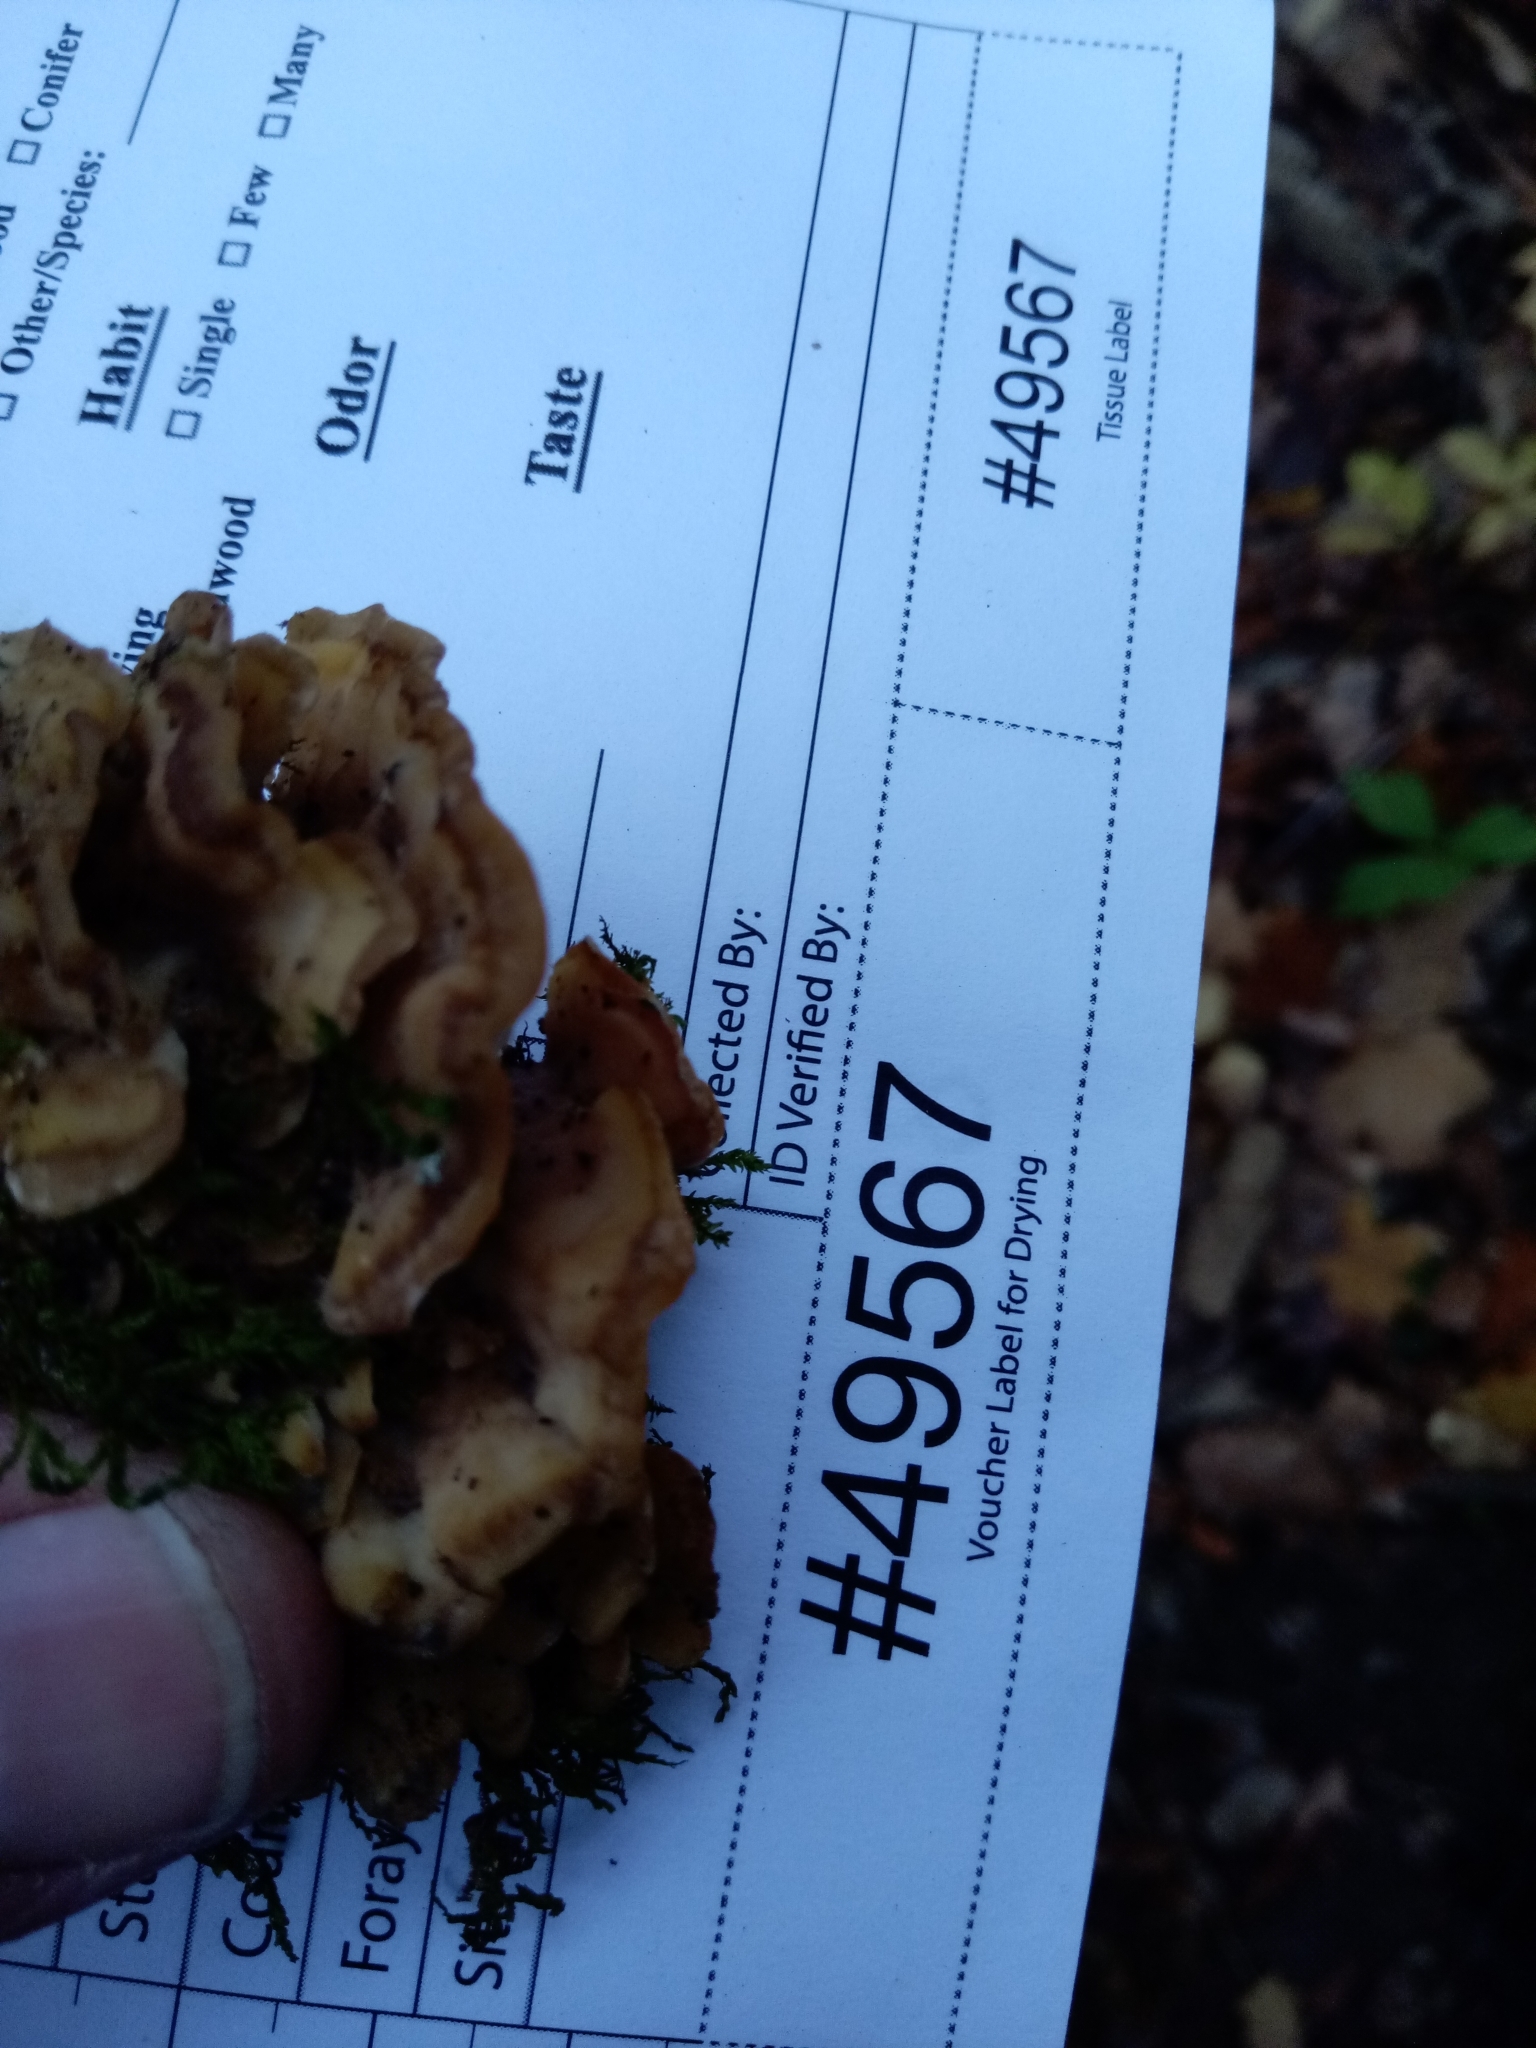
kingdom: Fungi
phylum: Basidiomycota
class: Agaricomycetes
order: Polyporales
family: Steccherinaceae
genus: Antrodiella
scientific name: Antrodiella semisupina
